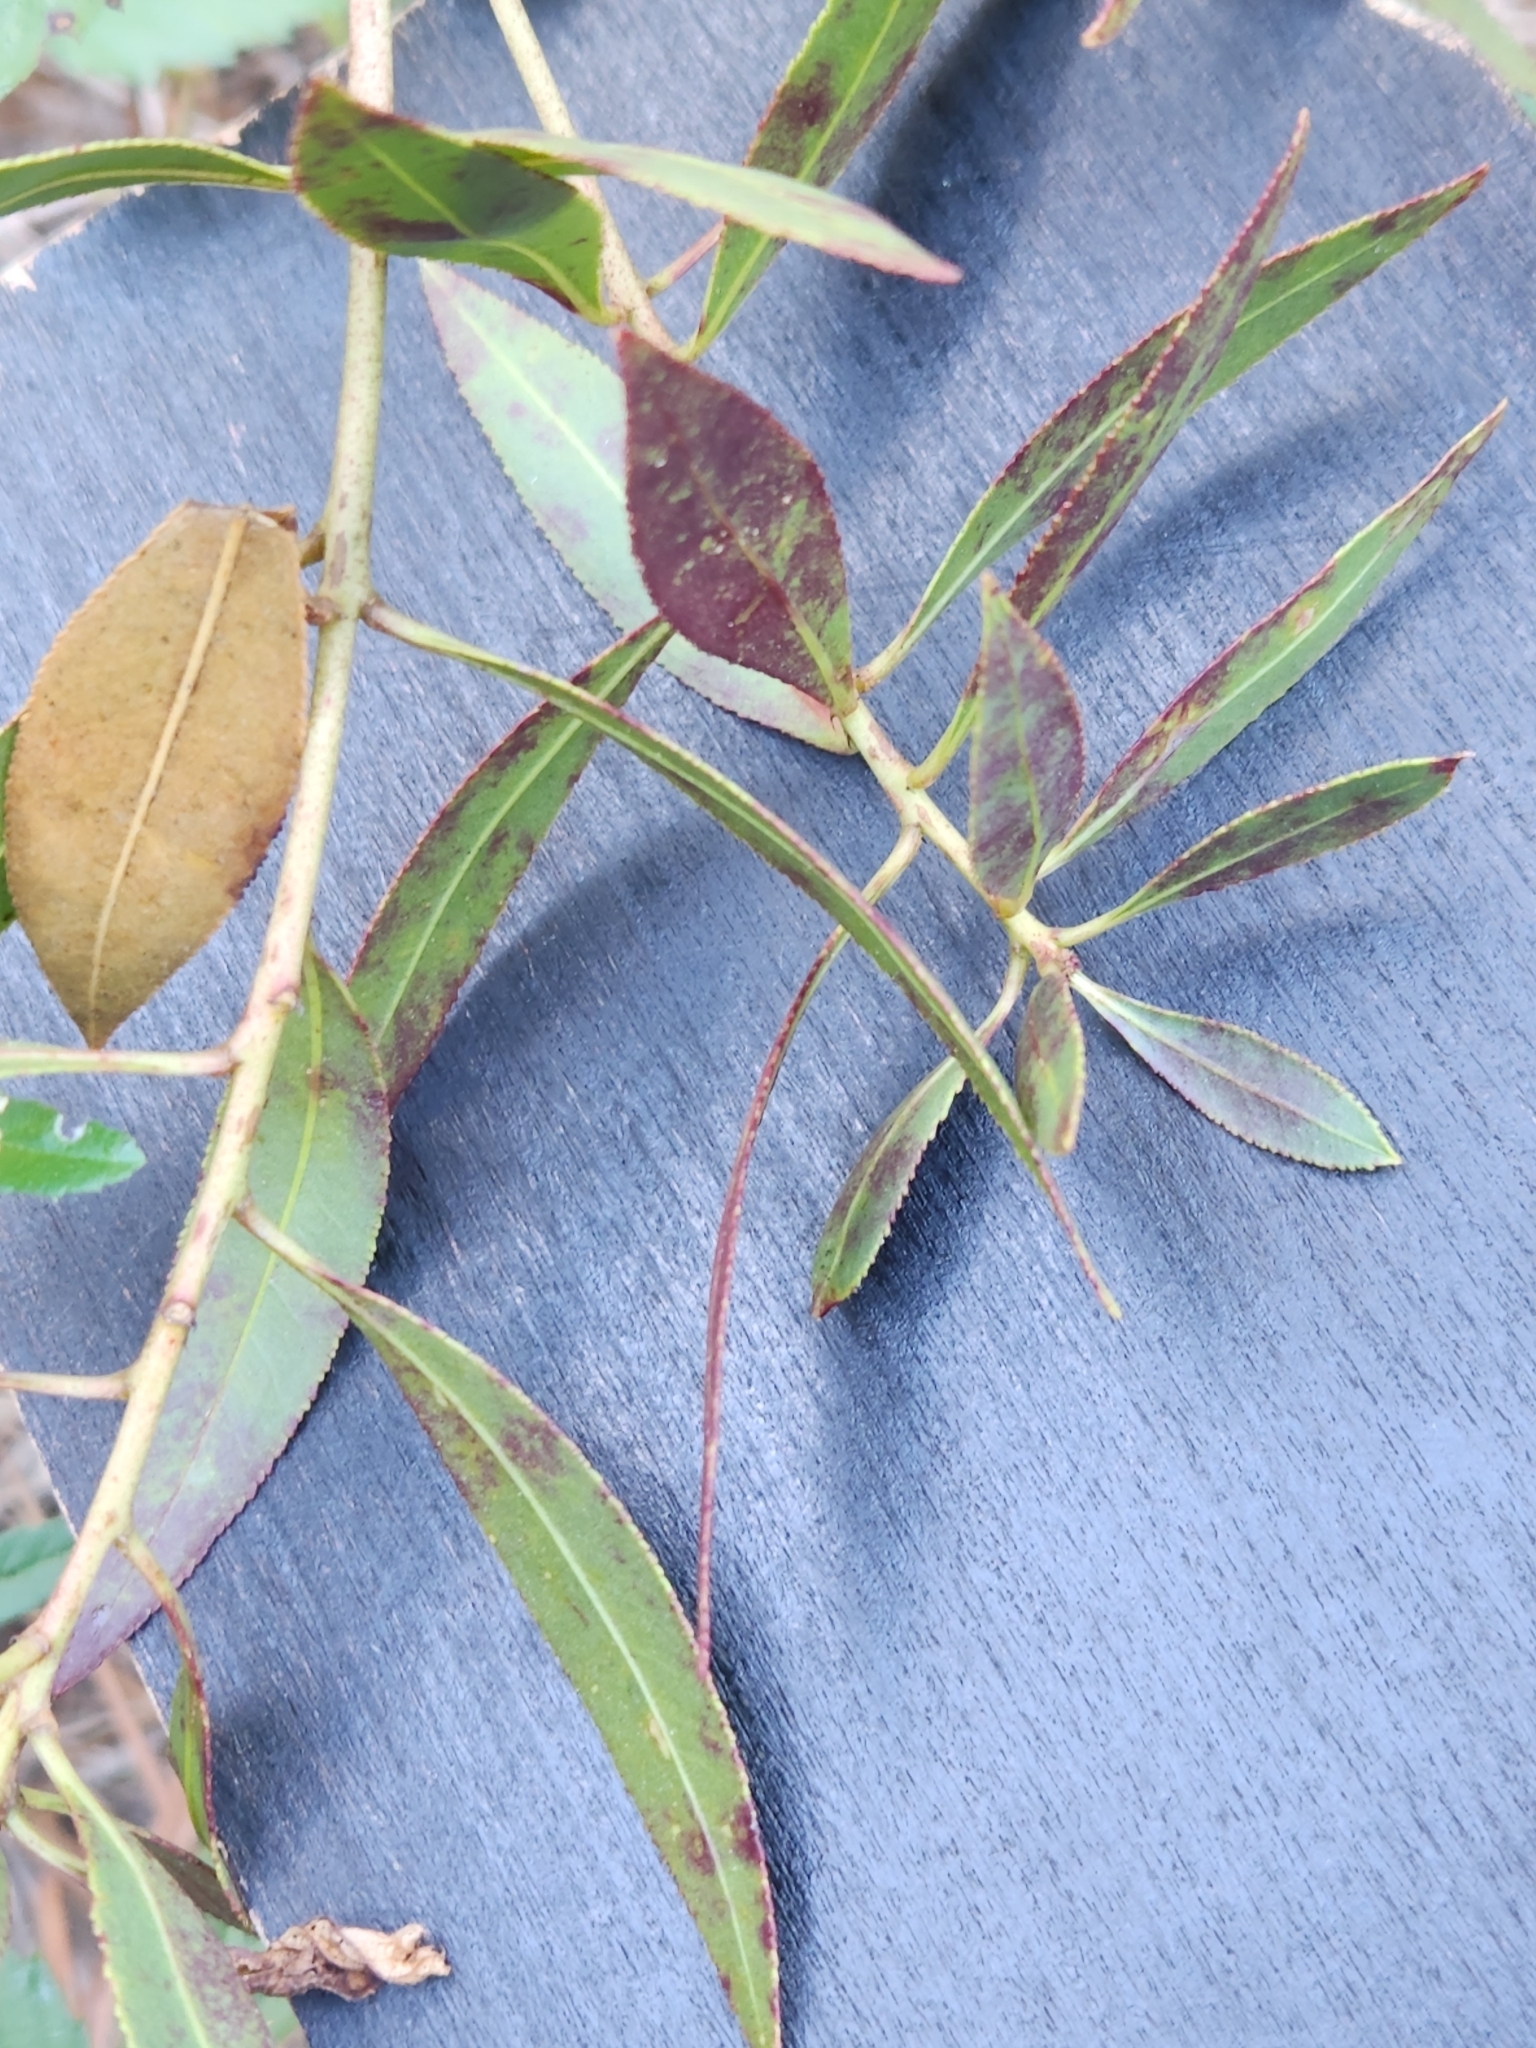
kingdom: Plantae
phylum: Tracheophyta
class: Magnoliopsida
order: Malpighiales
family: Euphorbiaceae
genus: Stillingia
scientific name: Stillingia sylvatica
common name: Queen's-delight
